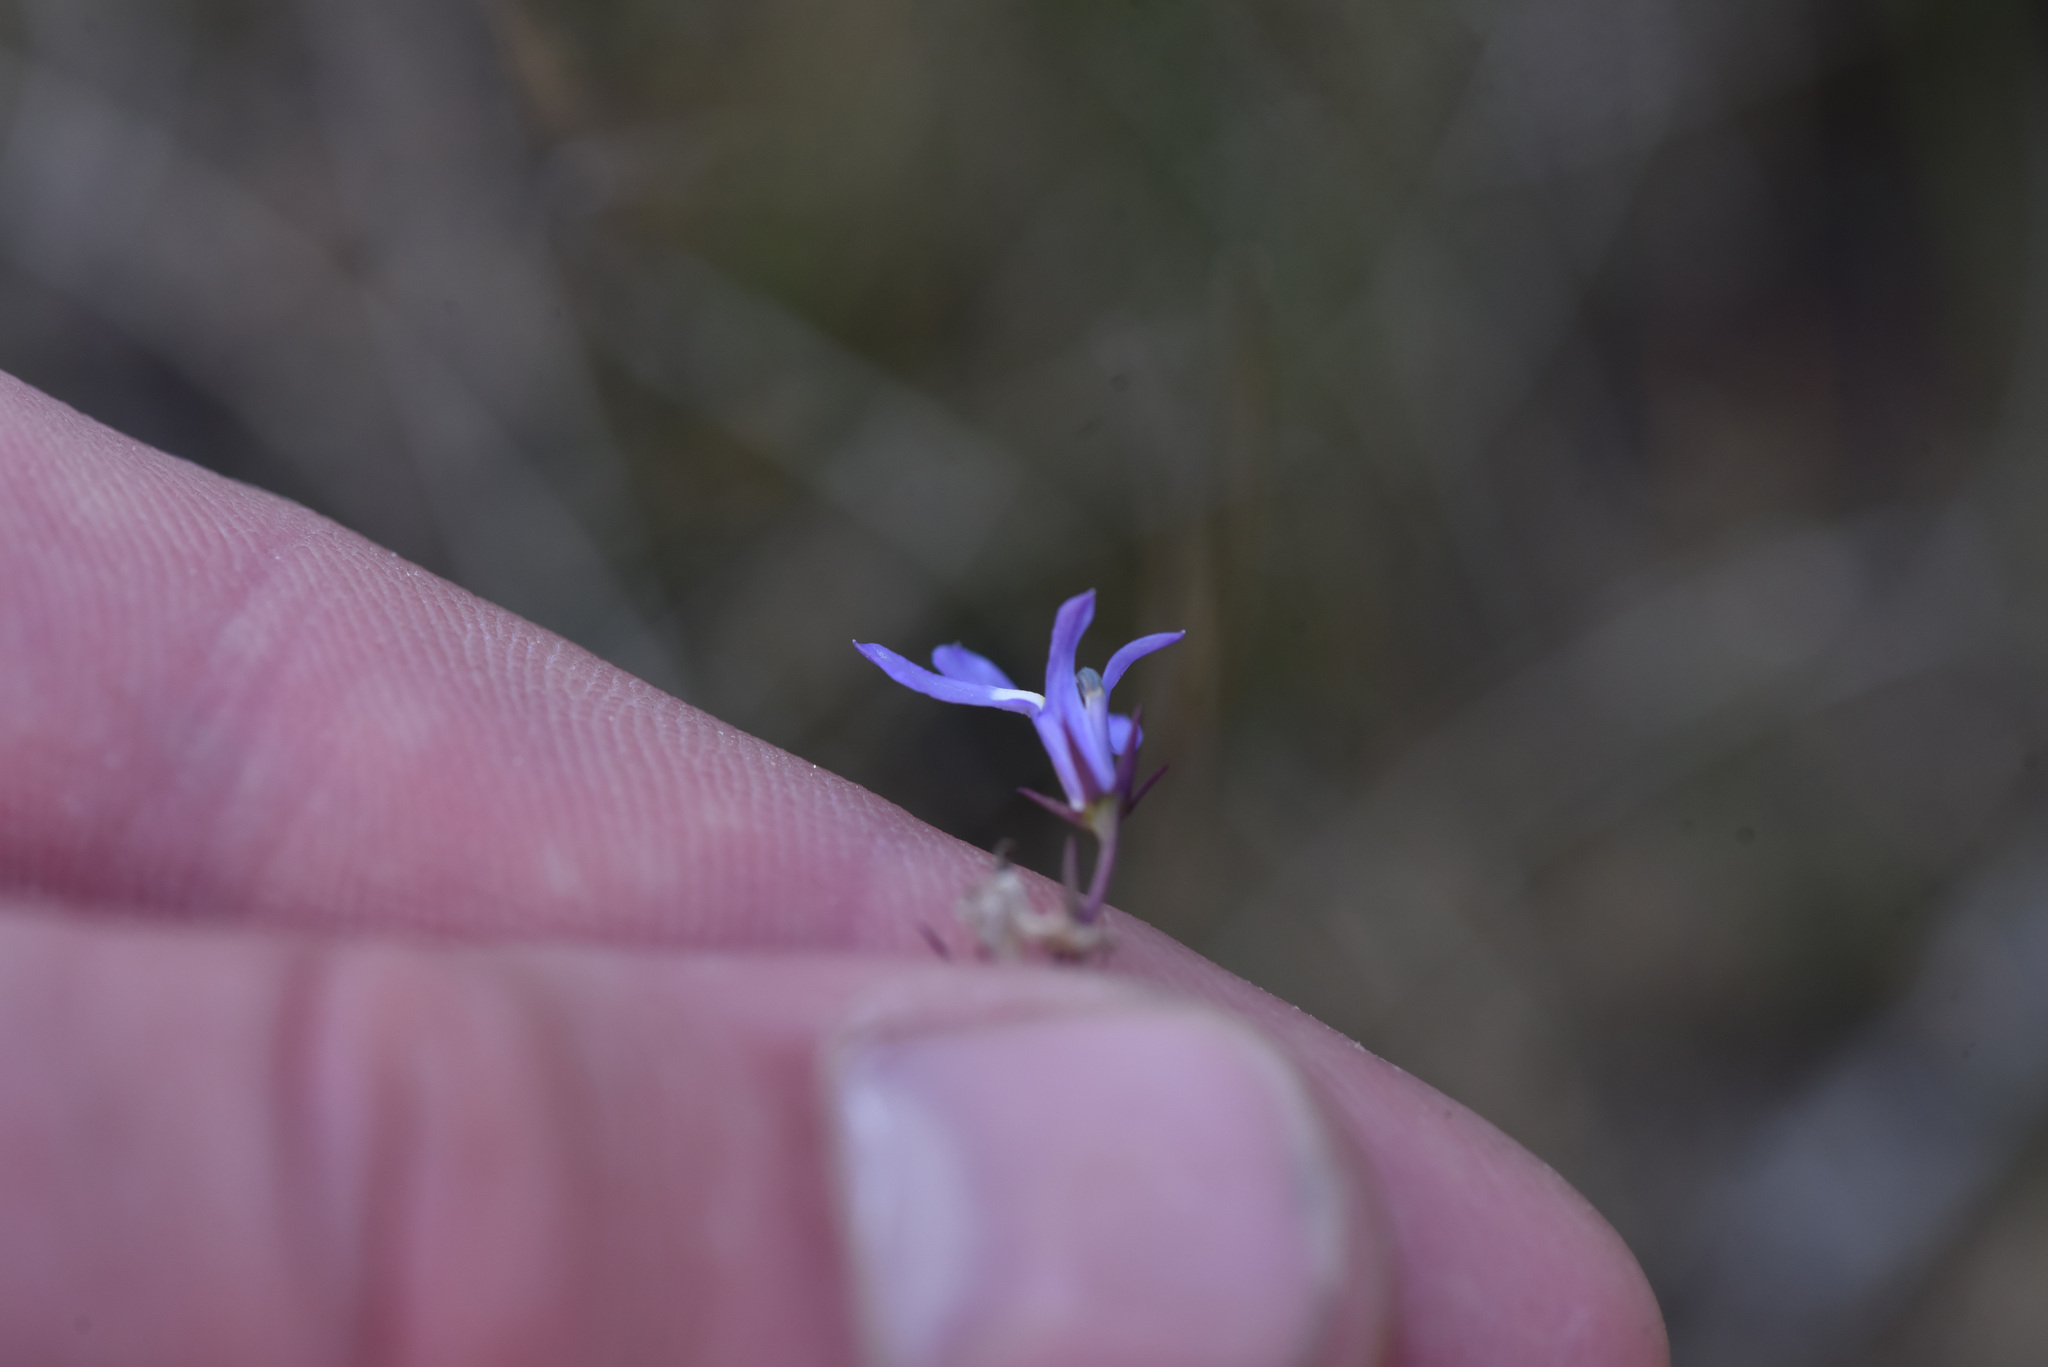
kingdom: Plantae
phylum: Tracheophyta
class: Magnoliopsida
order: Asterales
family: Campanulaceae
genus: Lobelia
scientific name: Lobelia kalmii
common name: Kalm's lobelia
